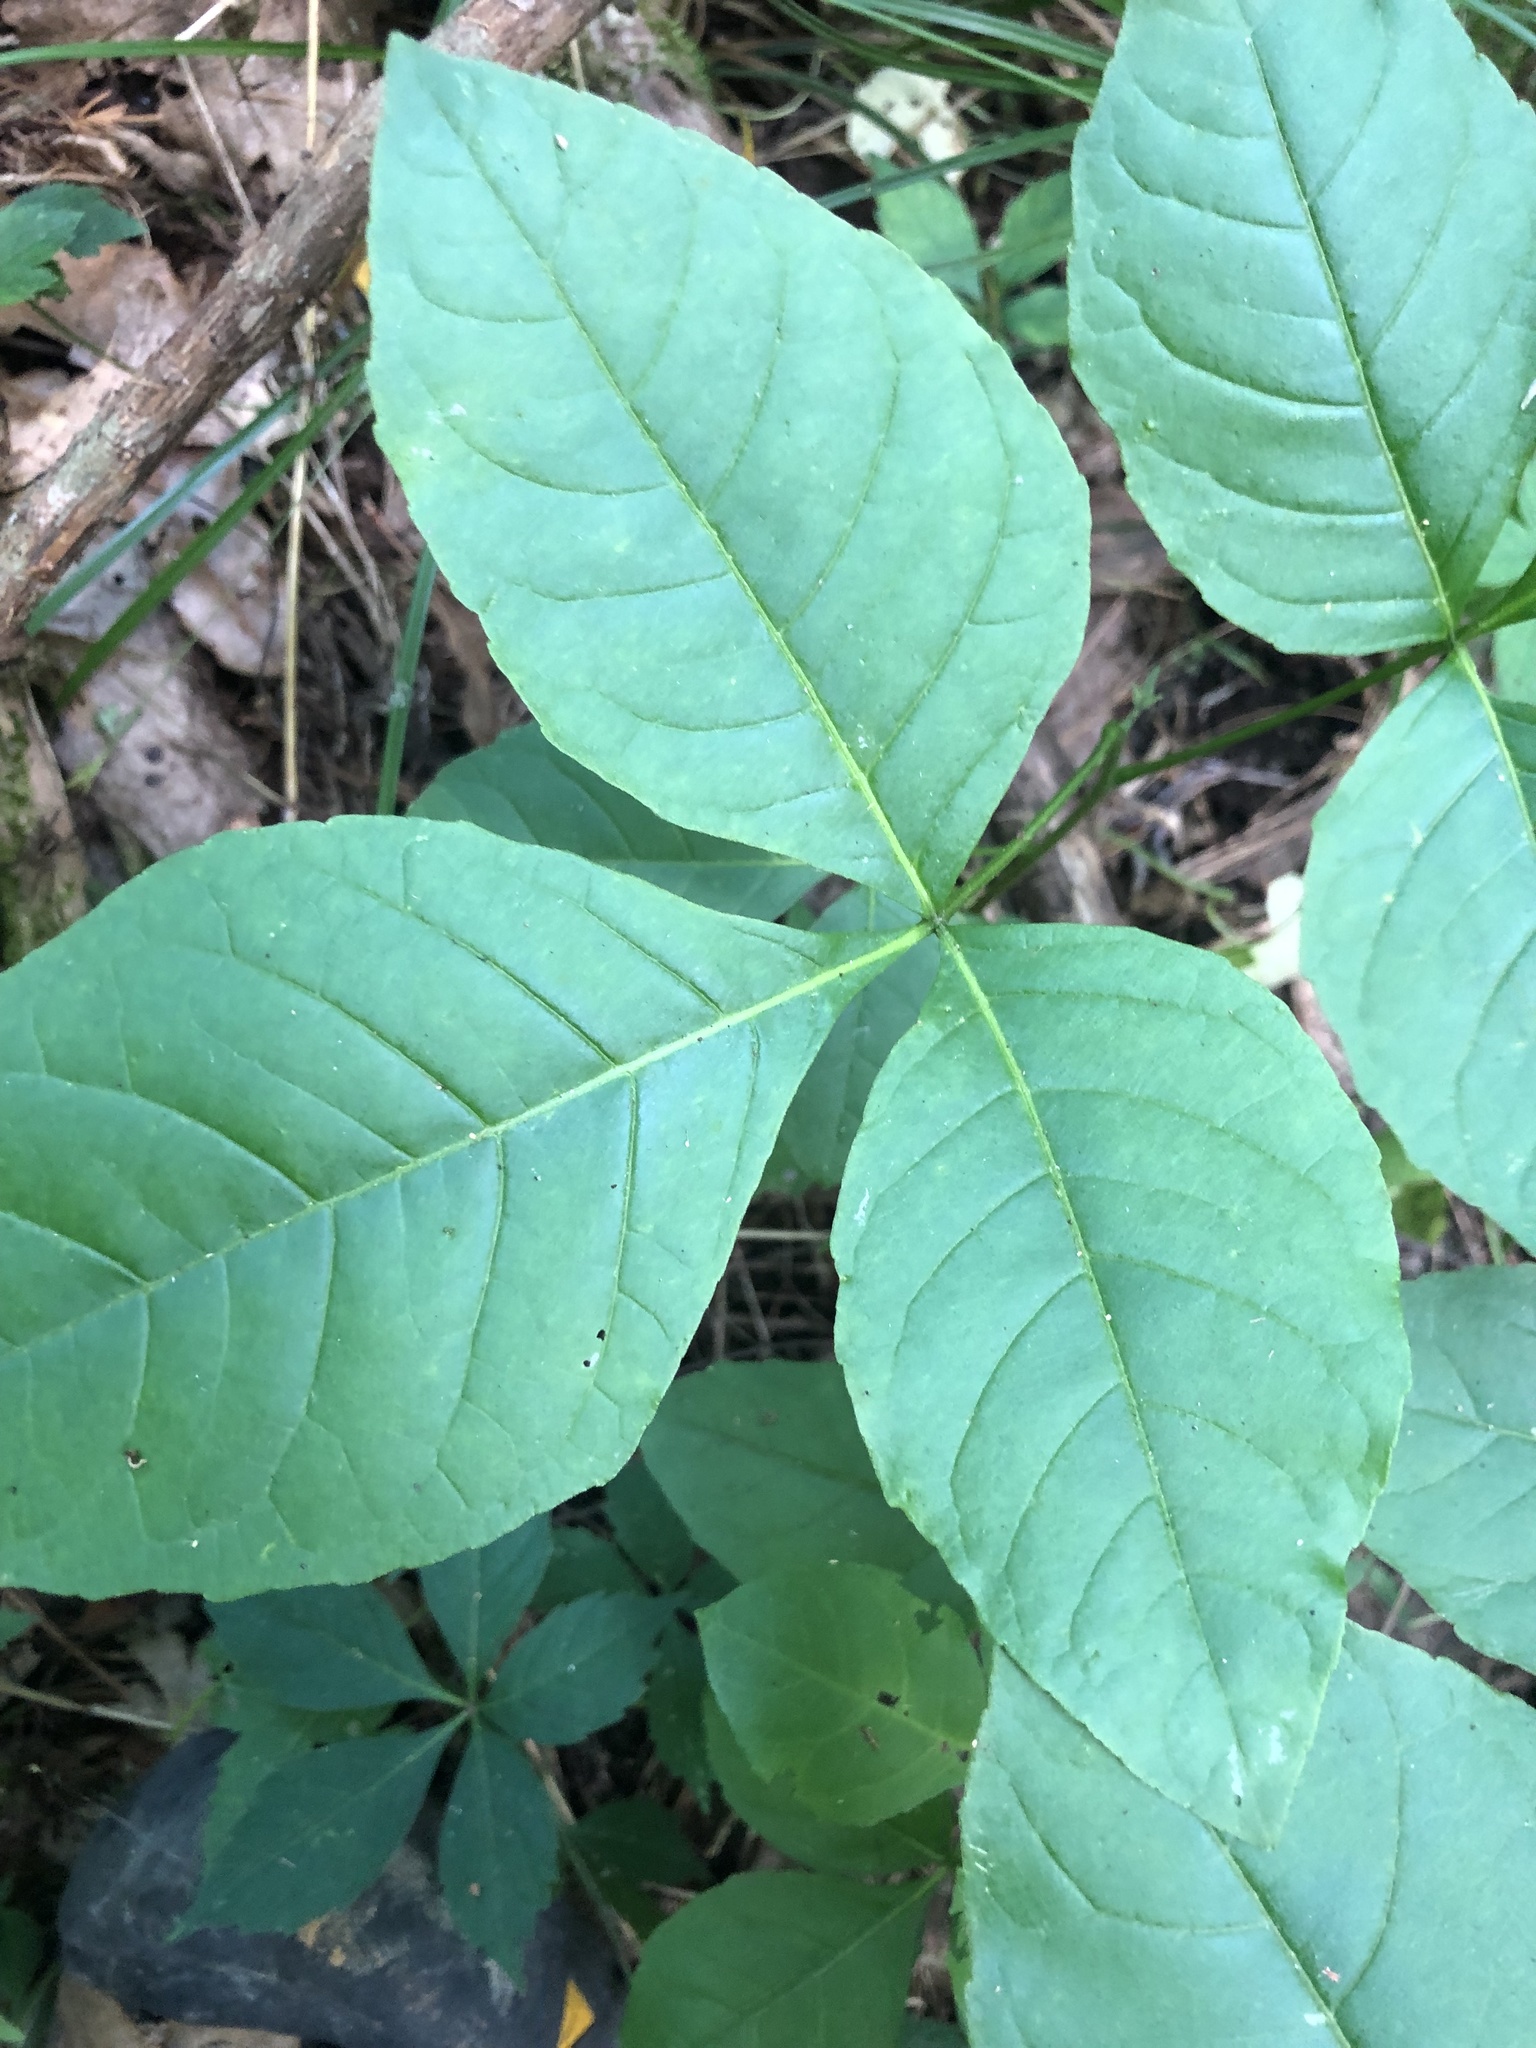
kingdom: Plantae
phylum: Tracheophyta
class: Magnoliopsida
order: Sapindales
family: Rutaceae
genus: Ptelea
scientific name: Ptelea trifoliata
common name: Common hop-tree
